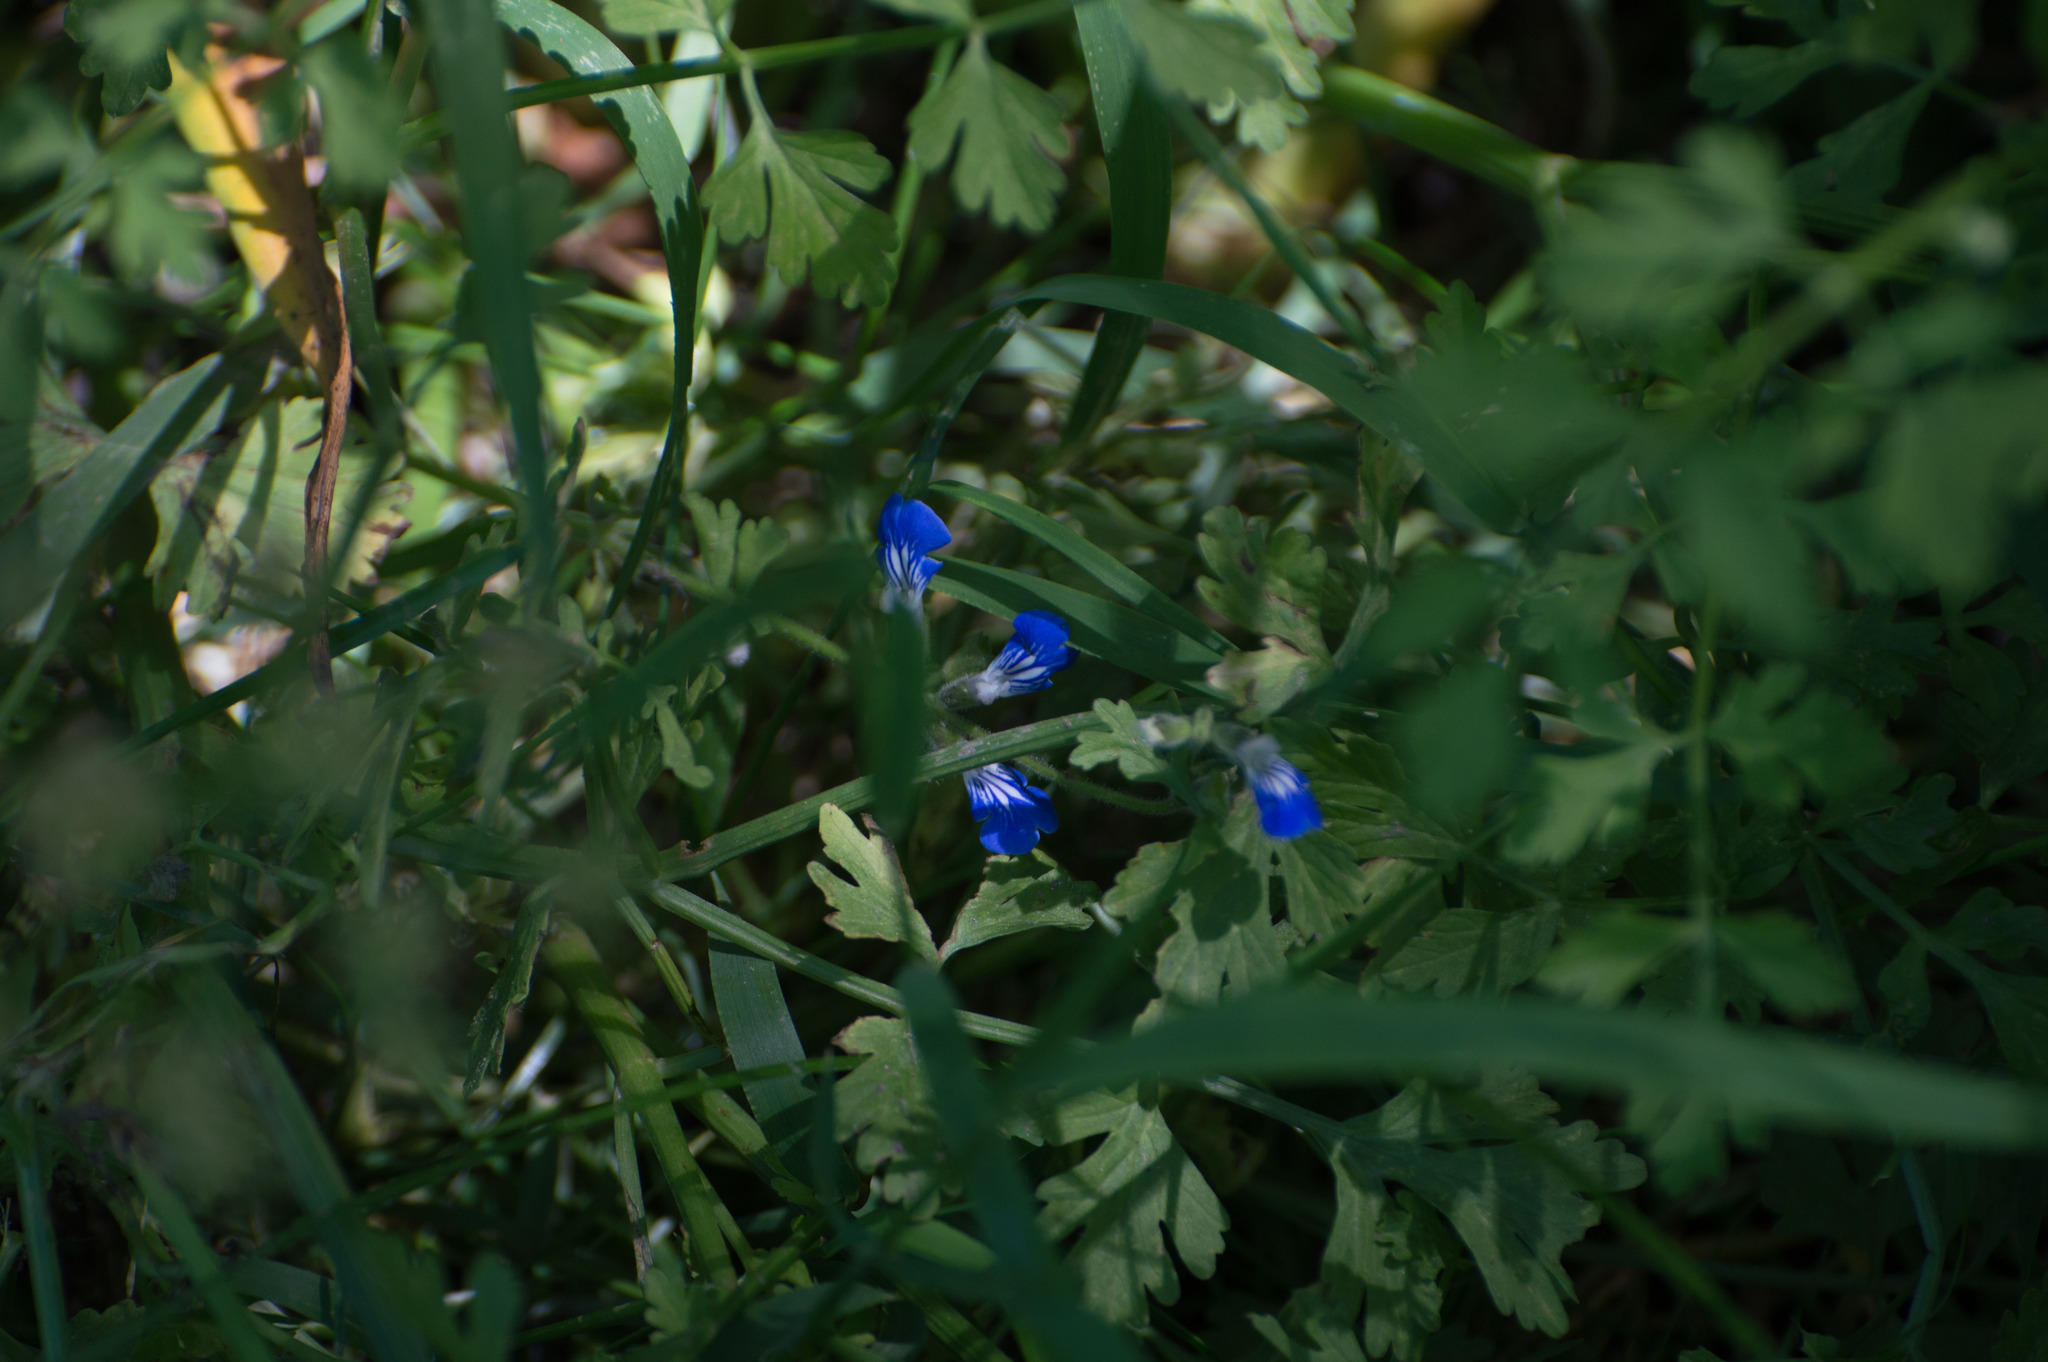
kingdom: Plantae
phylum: Tracheophyta
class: Magnoliopsida
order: Lamiales
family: Lamiaceae
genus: Salvia
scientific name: Salvia procurrens
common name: Blue creeper
